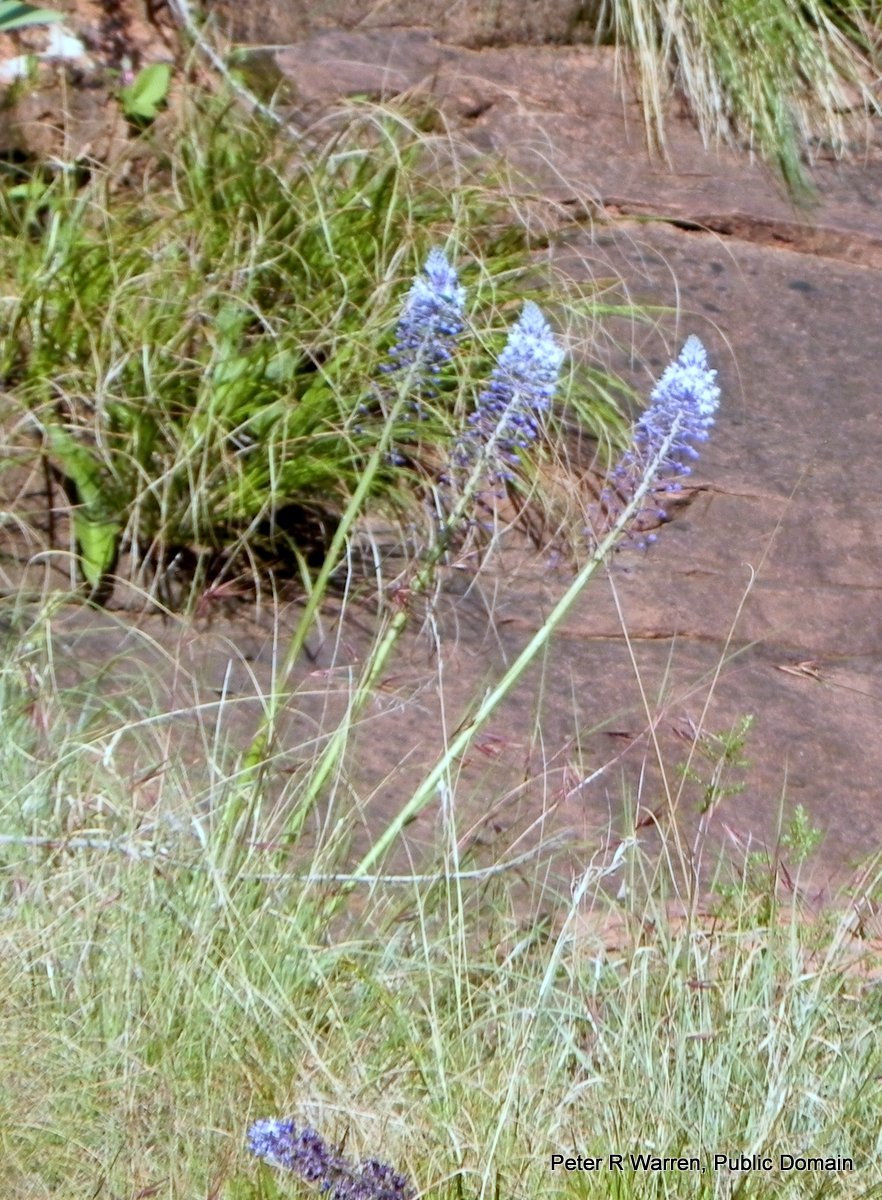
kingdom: Plantae
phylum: Tracheophyta
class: Liliopsida
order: Asparagales
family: Asparagaceae
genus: Merwilla
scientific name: Merwilla plumbea
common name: Blue-squill
